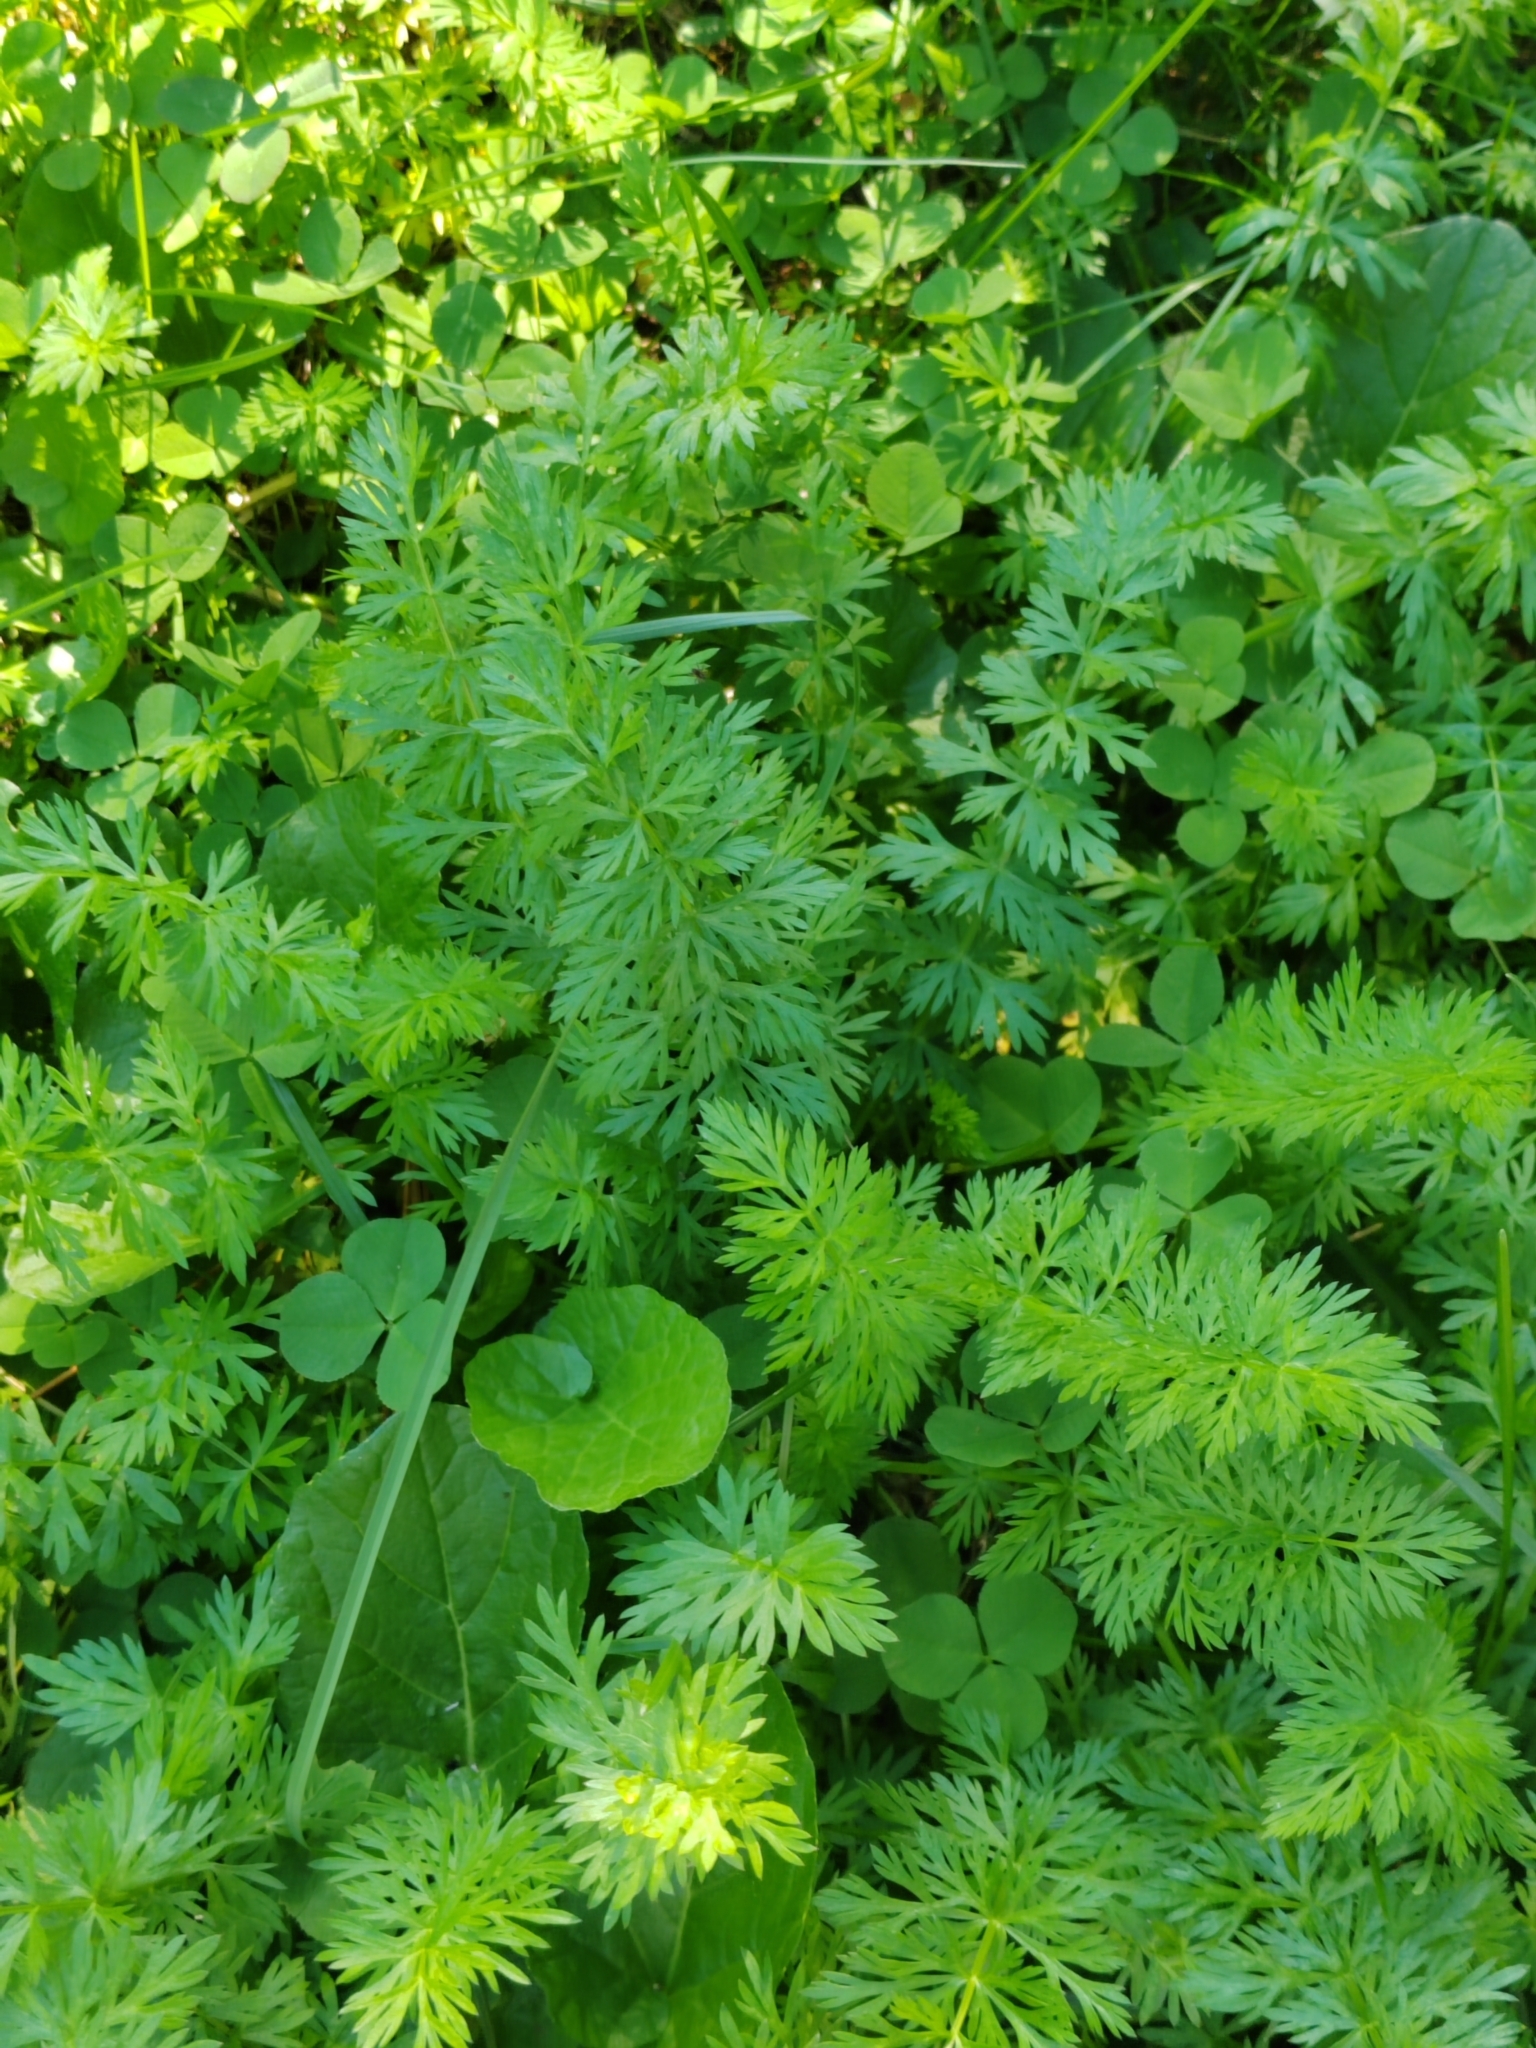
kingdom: Plantae
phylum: Tracheophyta
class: Magnoliopsida
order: Apiales
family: Apiaceae
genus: Carum
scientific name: Carum carvi
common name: Caraway
